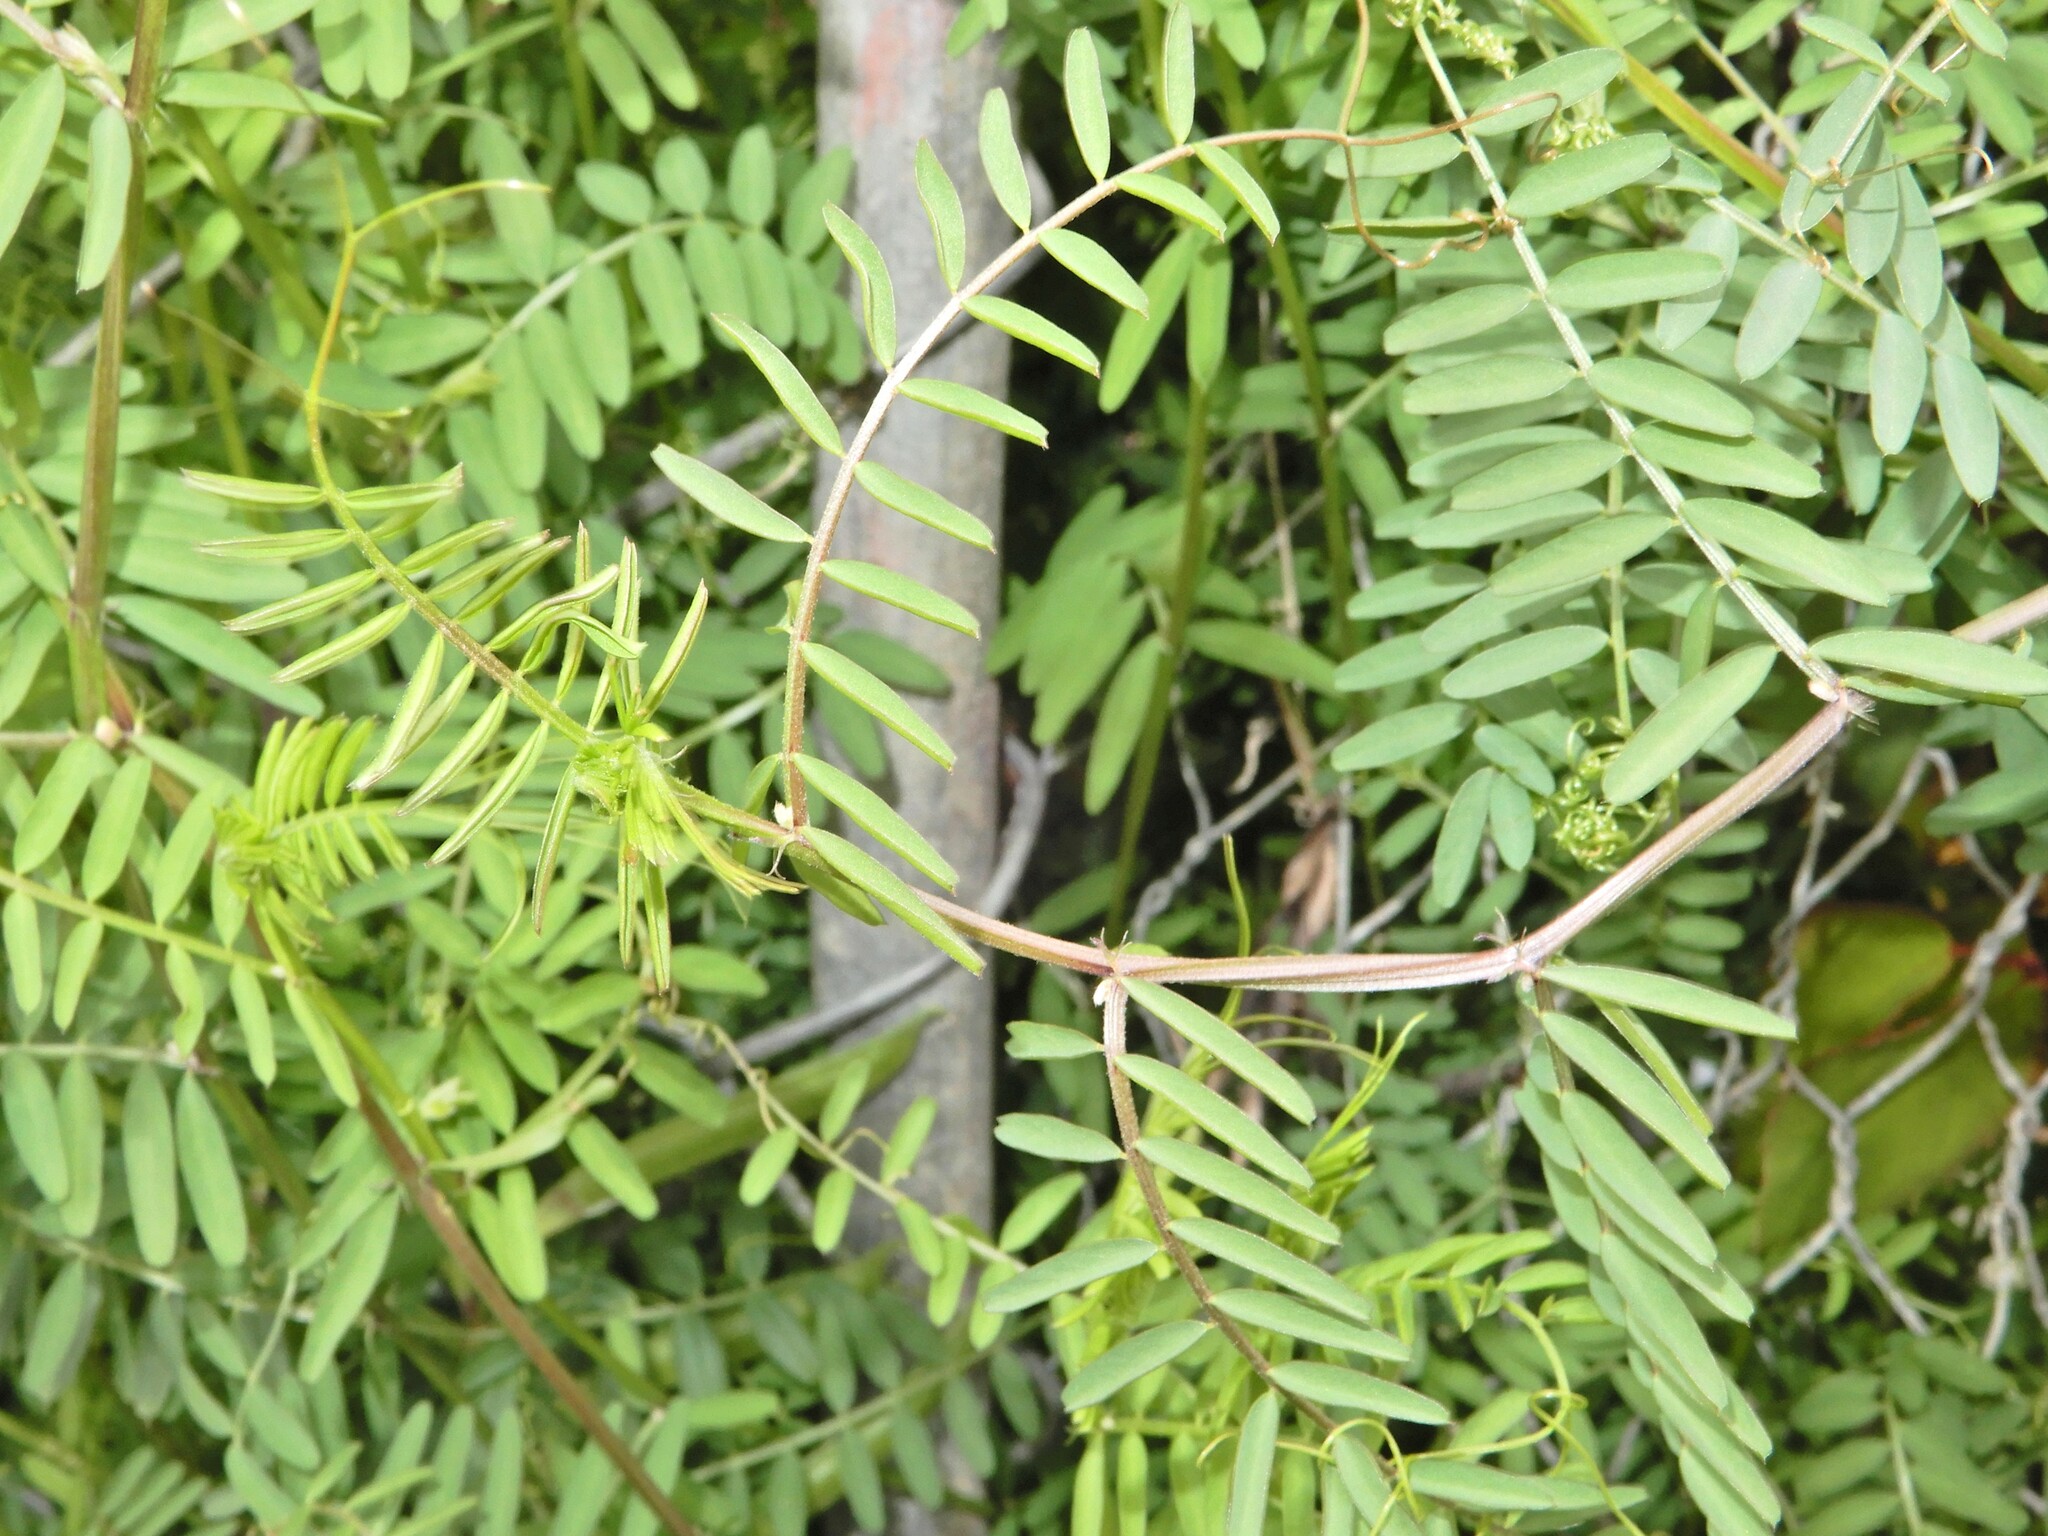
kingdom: Plantae
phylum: Tracheophyta
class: Magnoliopsida
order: Fabales
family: Fabaceae
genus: Vicia
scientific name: Vicia sativa
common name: Garden vetch
